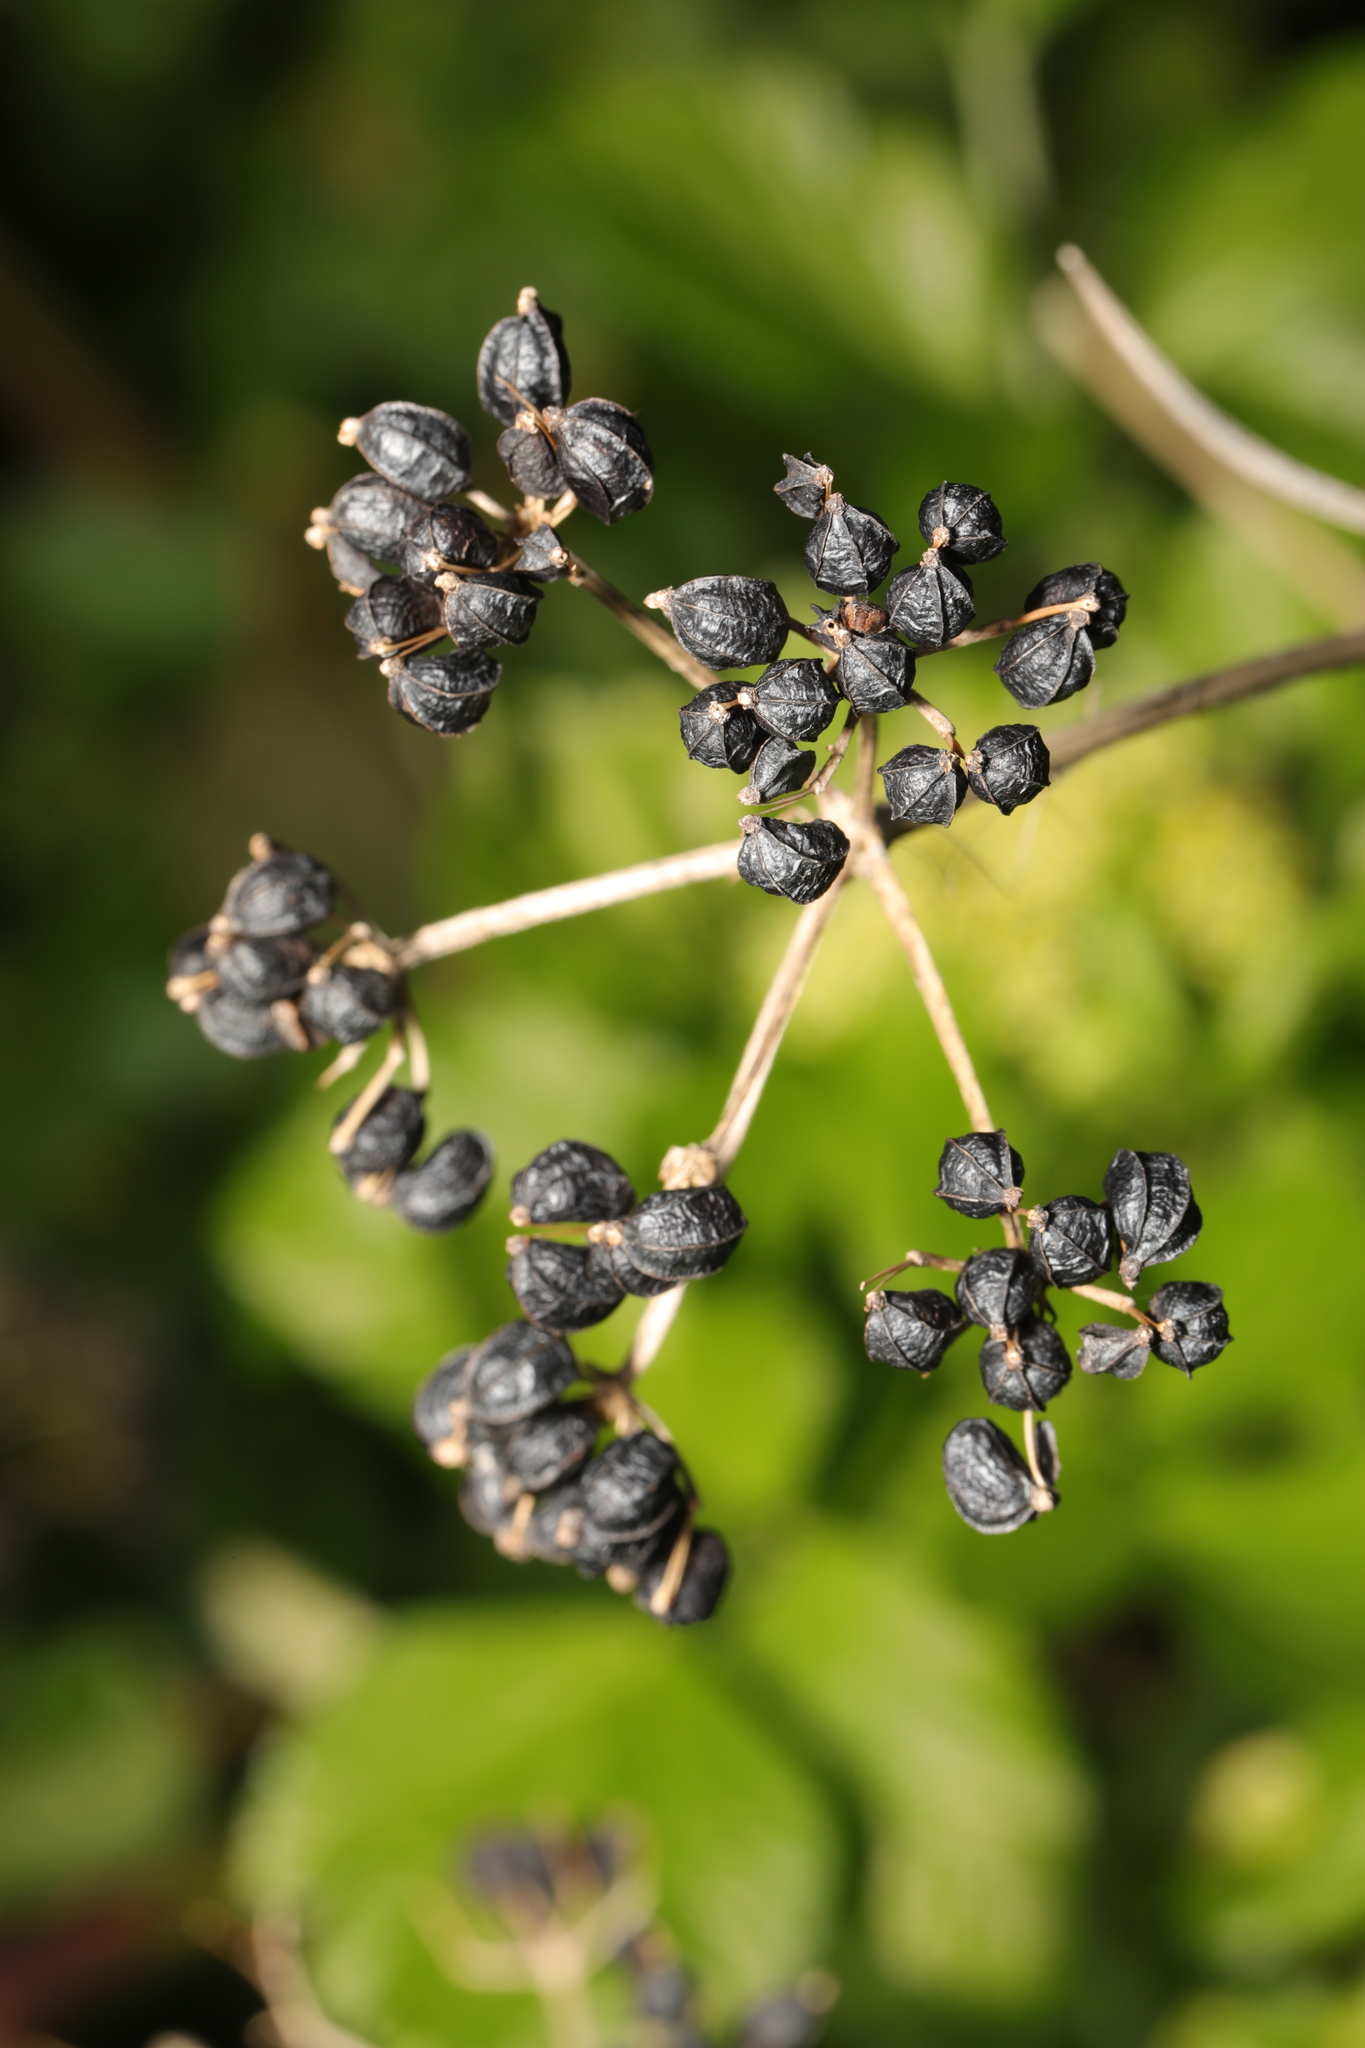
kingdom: Plantae
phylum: Tracheophyta
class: Magnoliopsida
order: Apiales
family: Apiaceae
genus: Smyrnium
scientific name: Smyrnium olusatrum
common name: Alexanders
